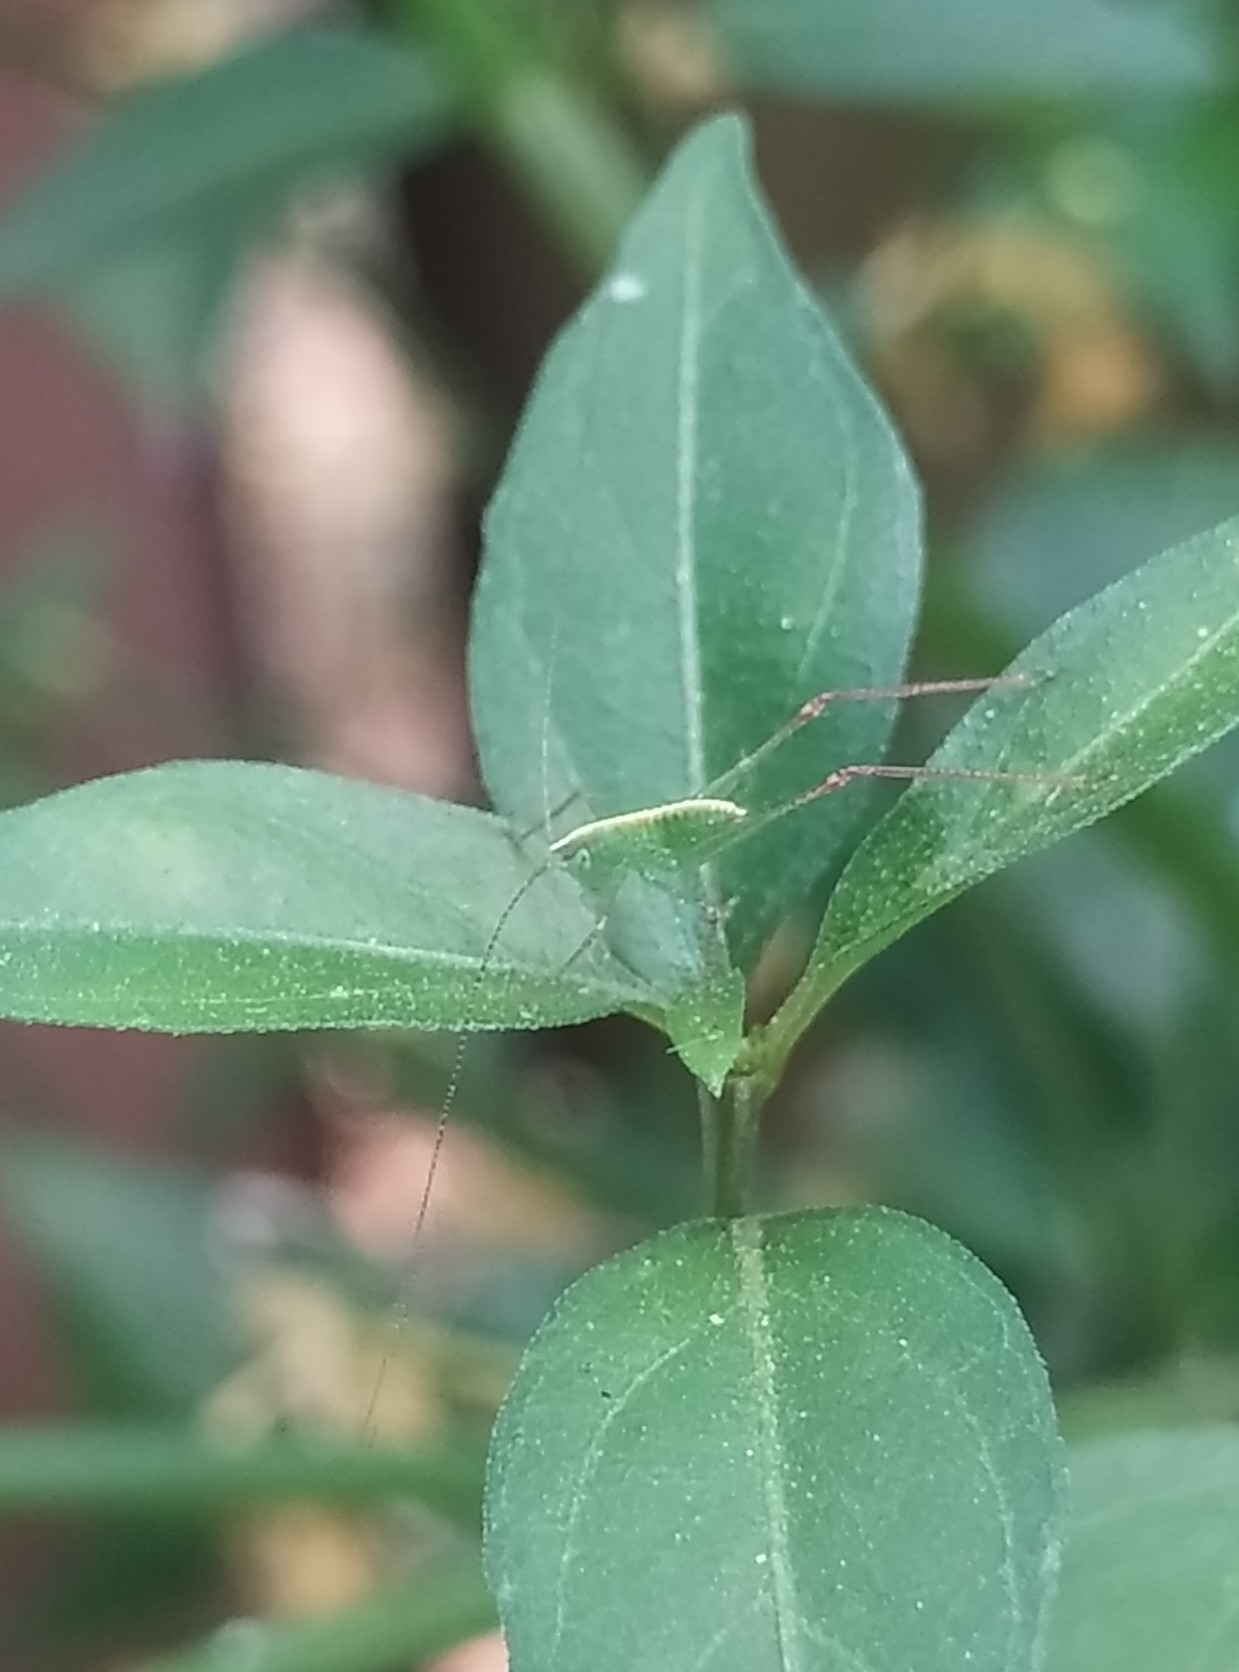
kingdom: Animalia
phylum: Arthropoda
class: Insecta
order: Orthoptera
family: Tettigoniidae
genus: Grammadera
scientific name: Grammadera clara
